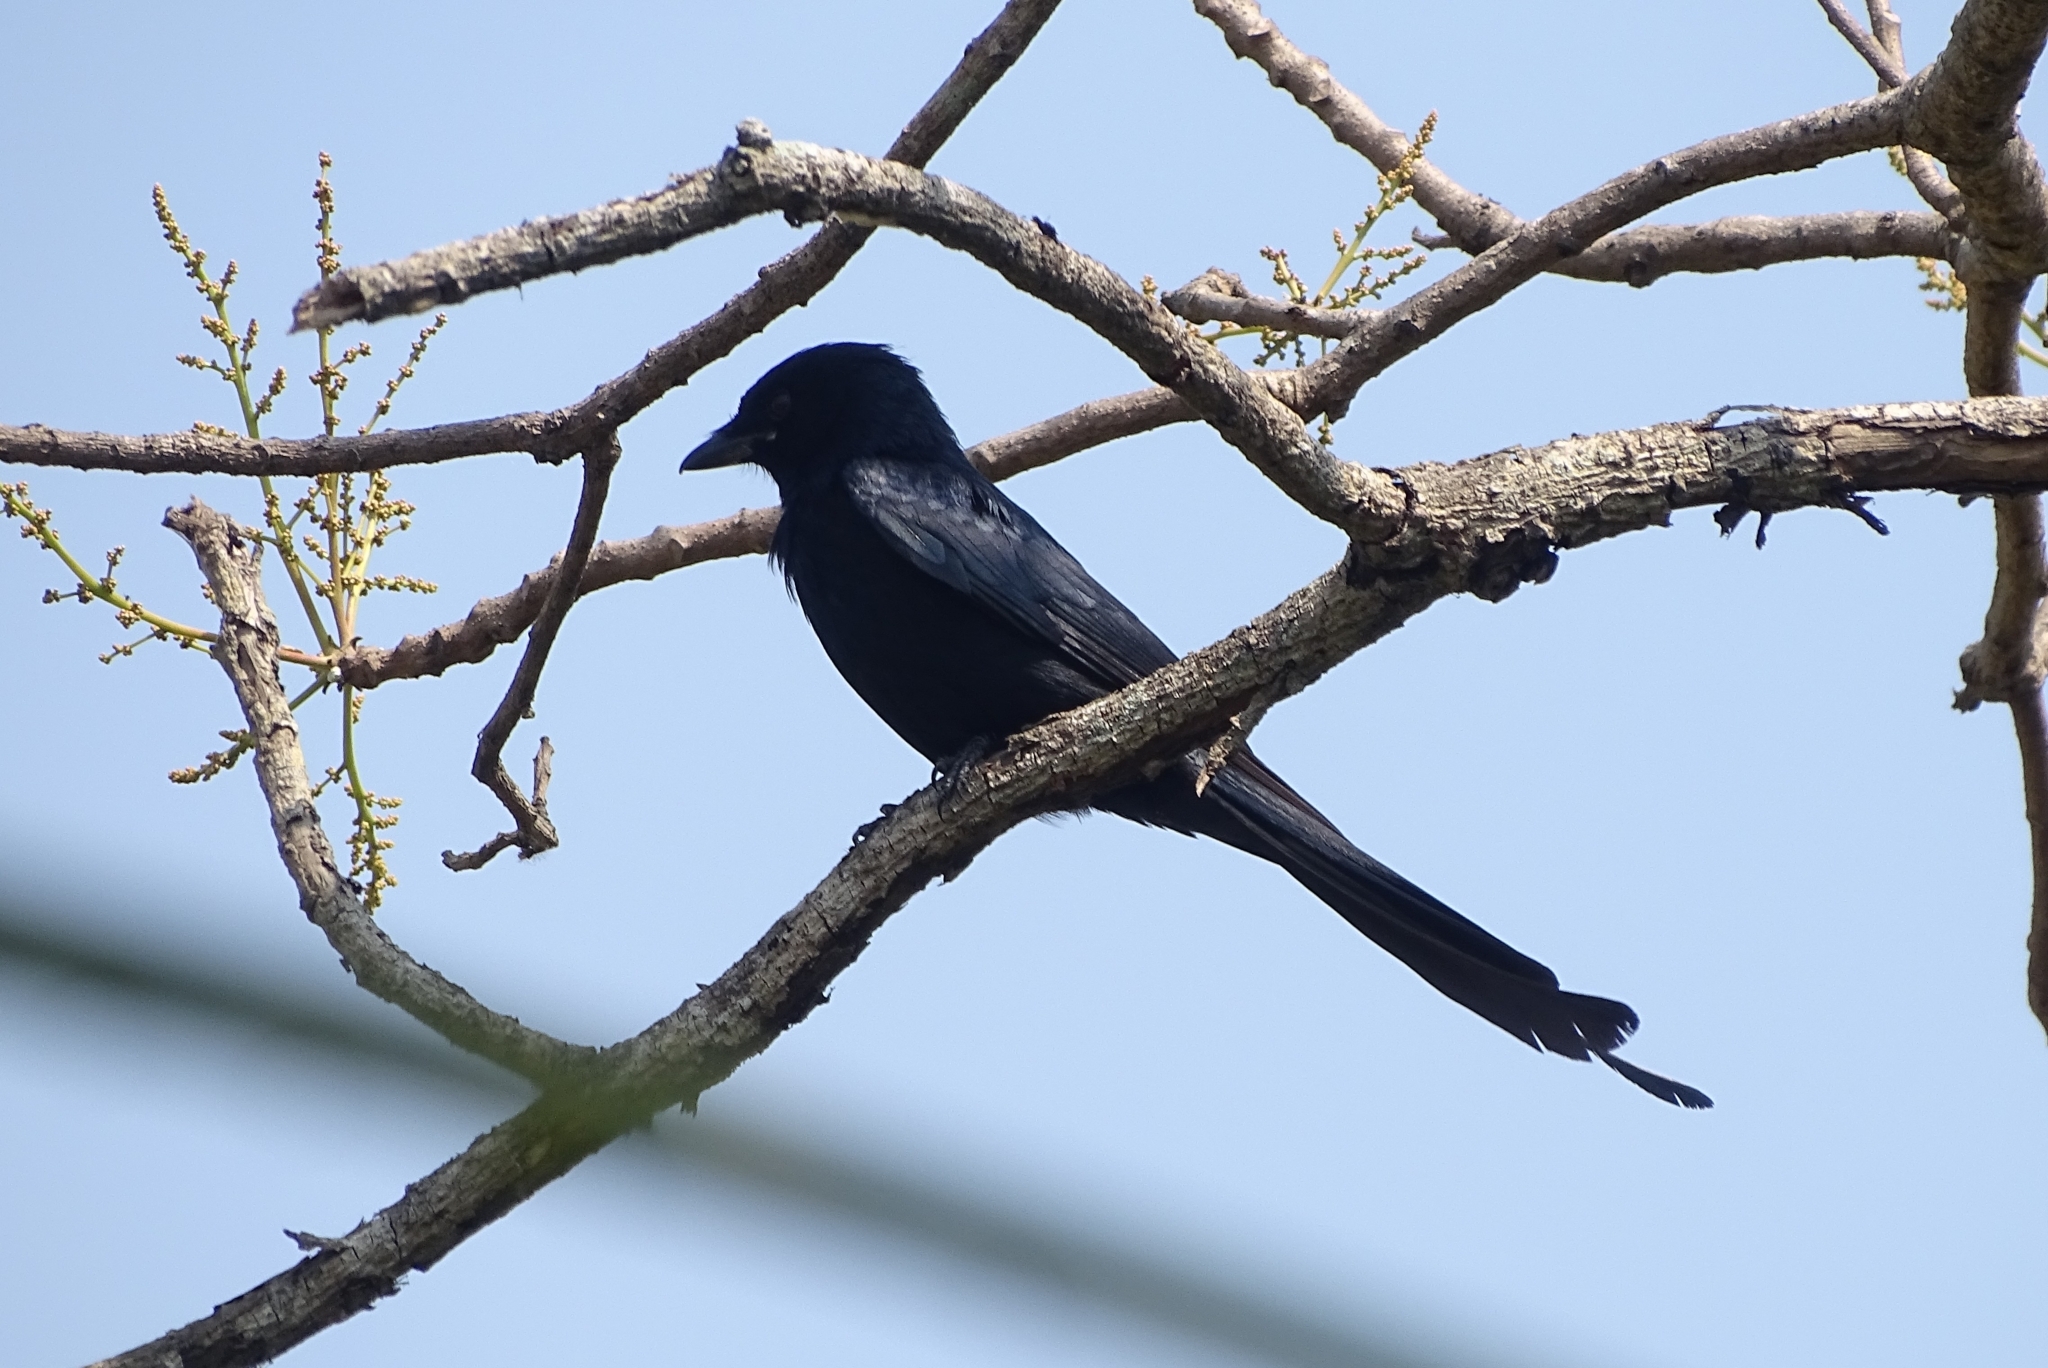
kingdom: Animalia
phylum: Chordata
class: Aves
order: Passeriformes
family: Dicruridae
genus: Dicrurus
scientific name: Dicrurus macrocercus
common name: Black drongo
